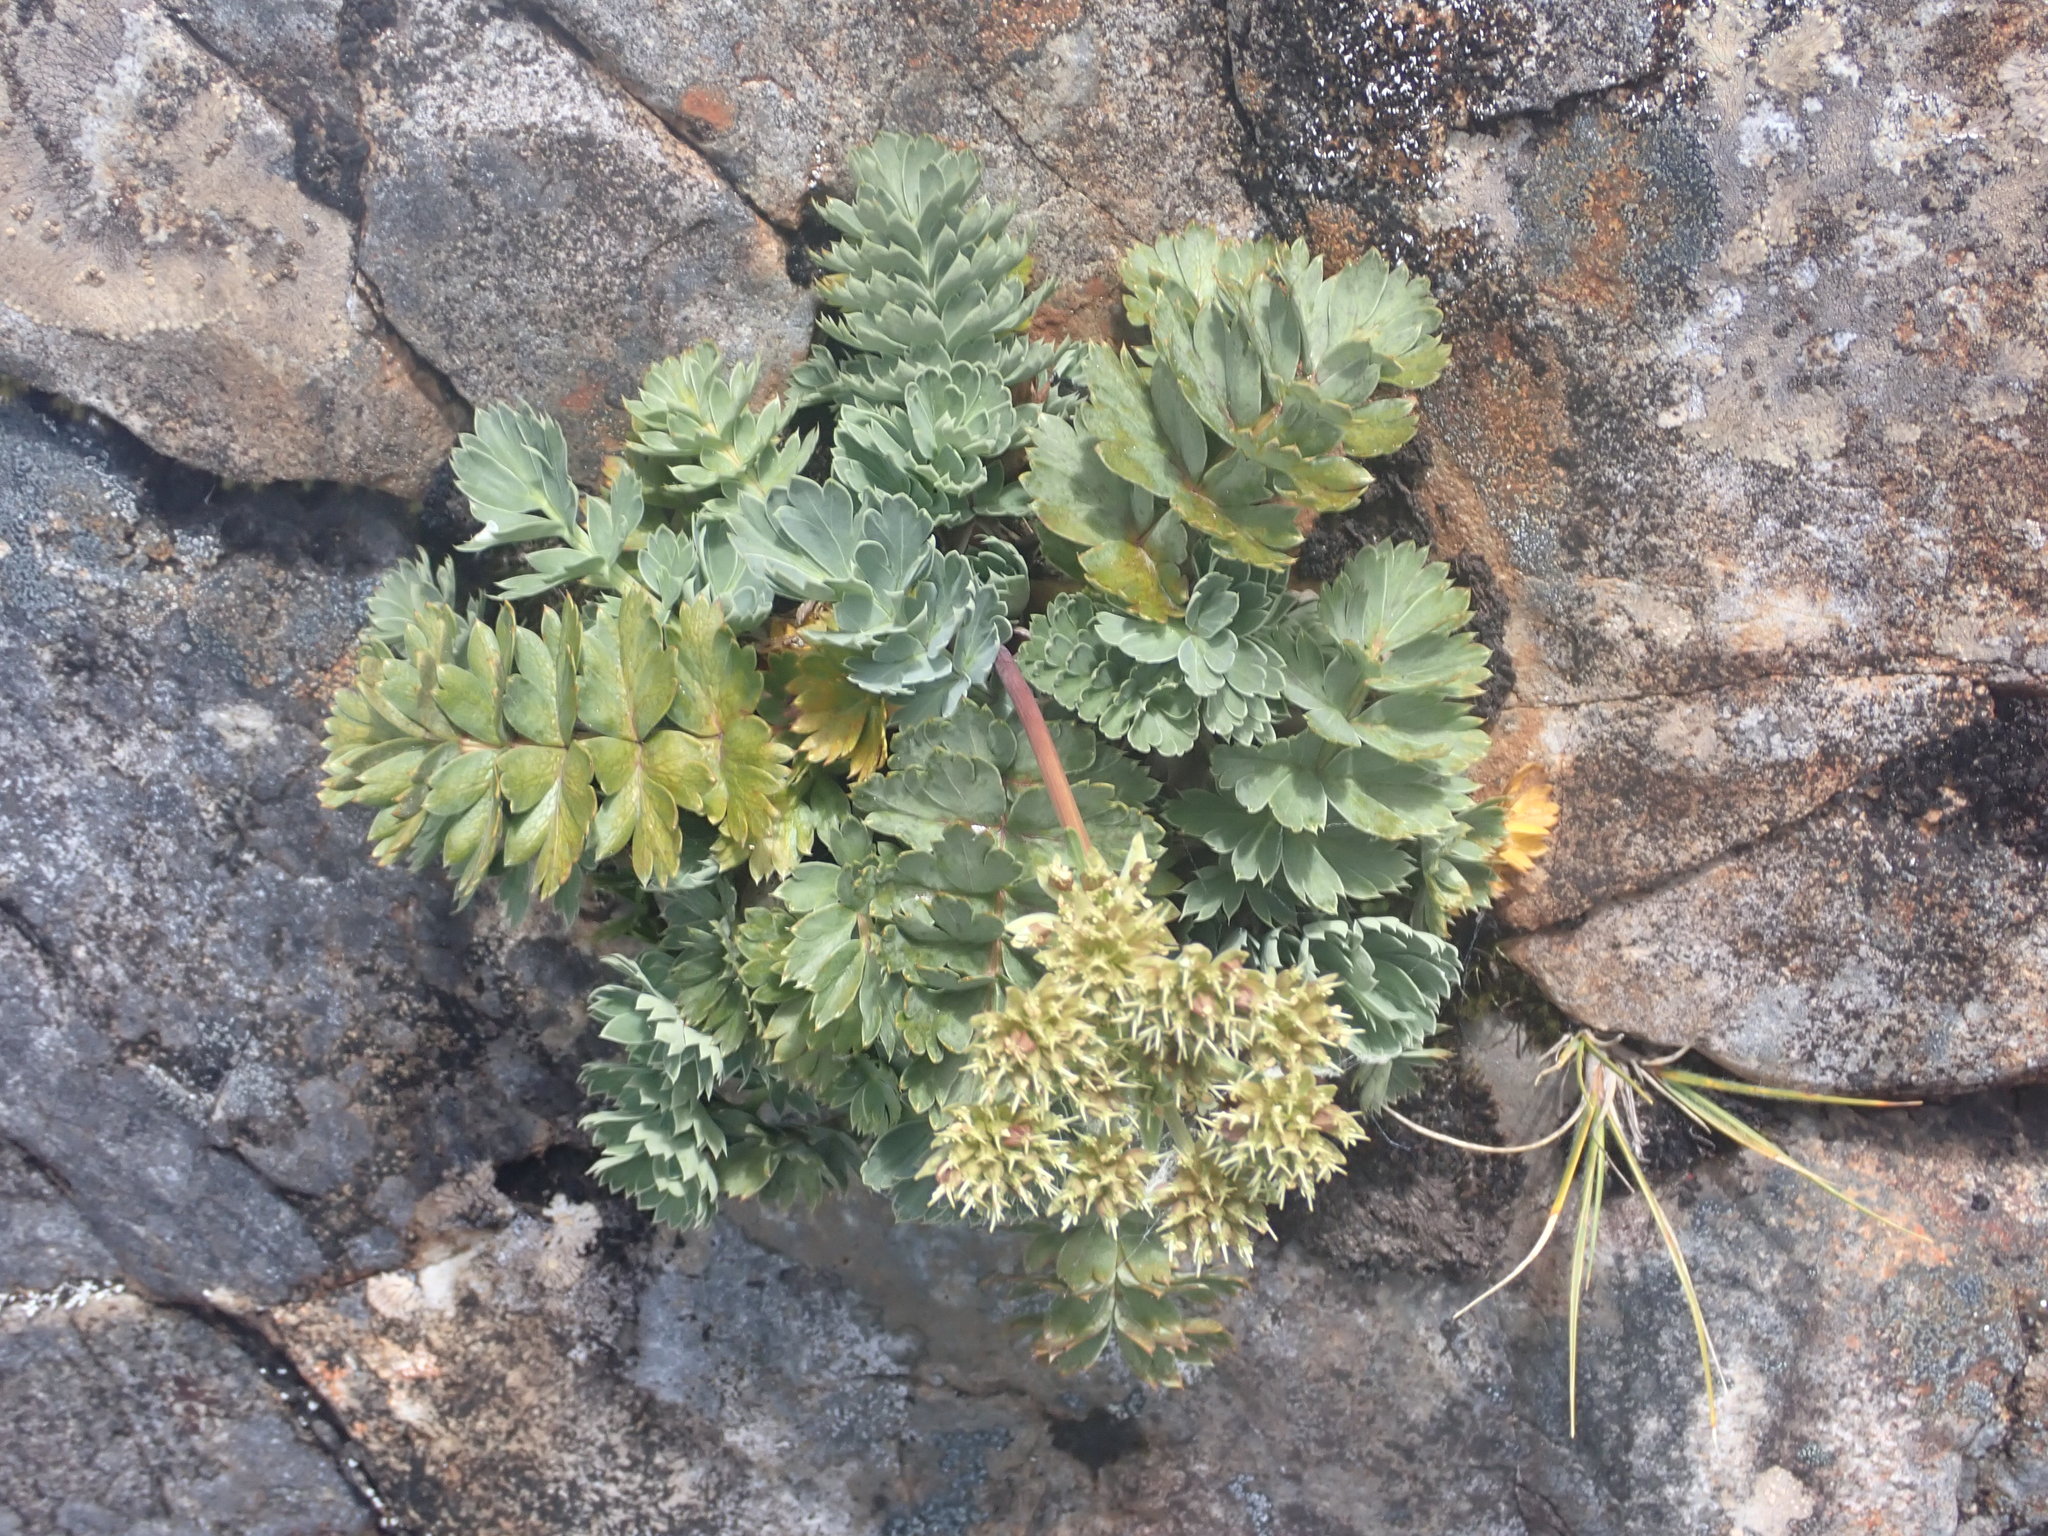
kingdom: Plantae
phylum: Tracheophyta
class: Magnoliopsida
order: Apiales
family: Apiaceae
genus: Anisotome
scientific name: Anisotome pilifera
